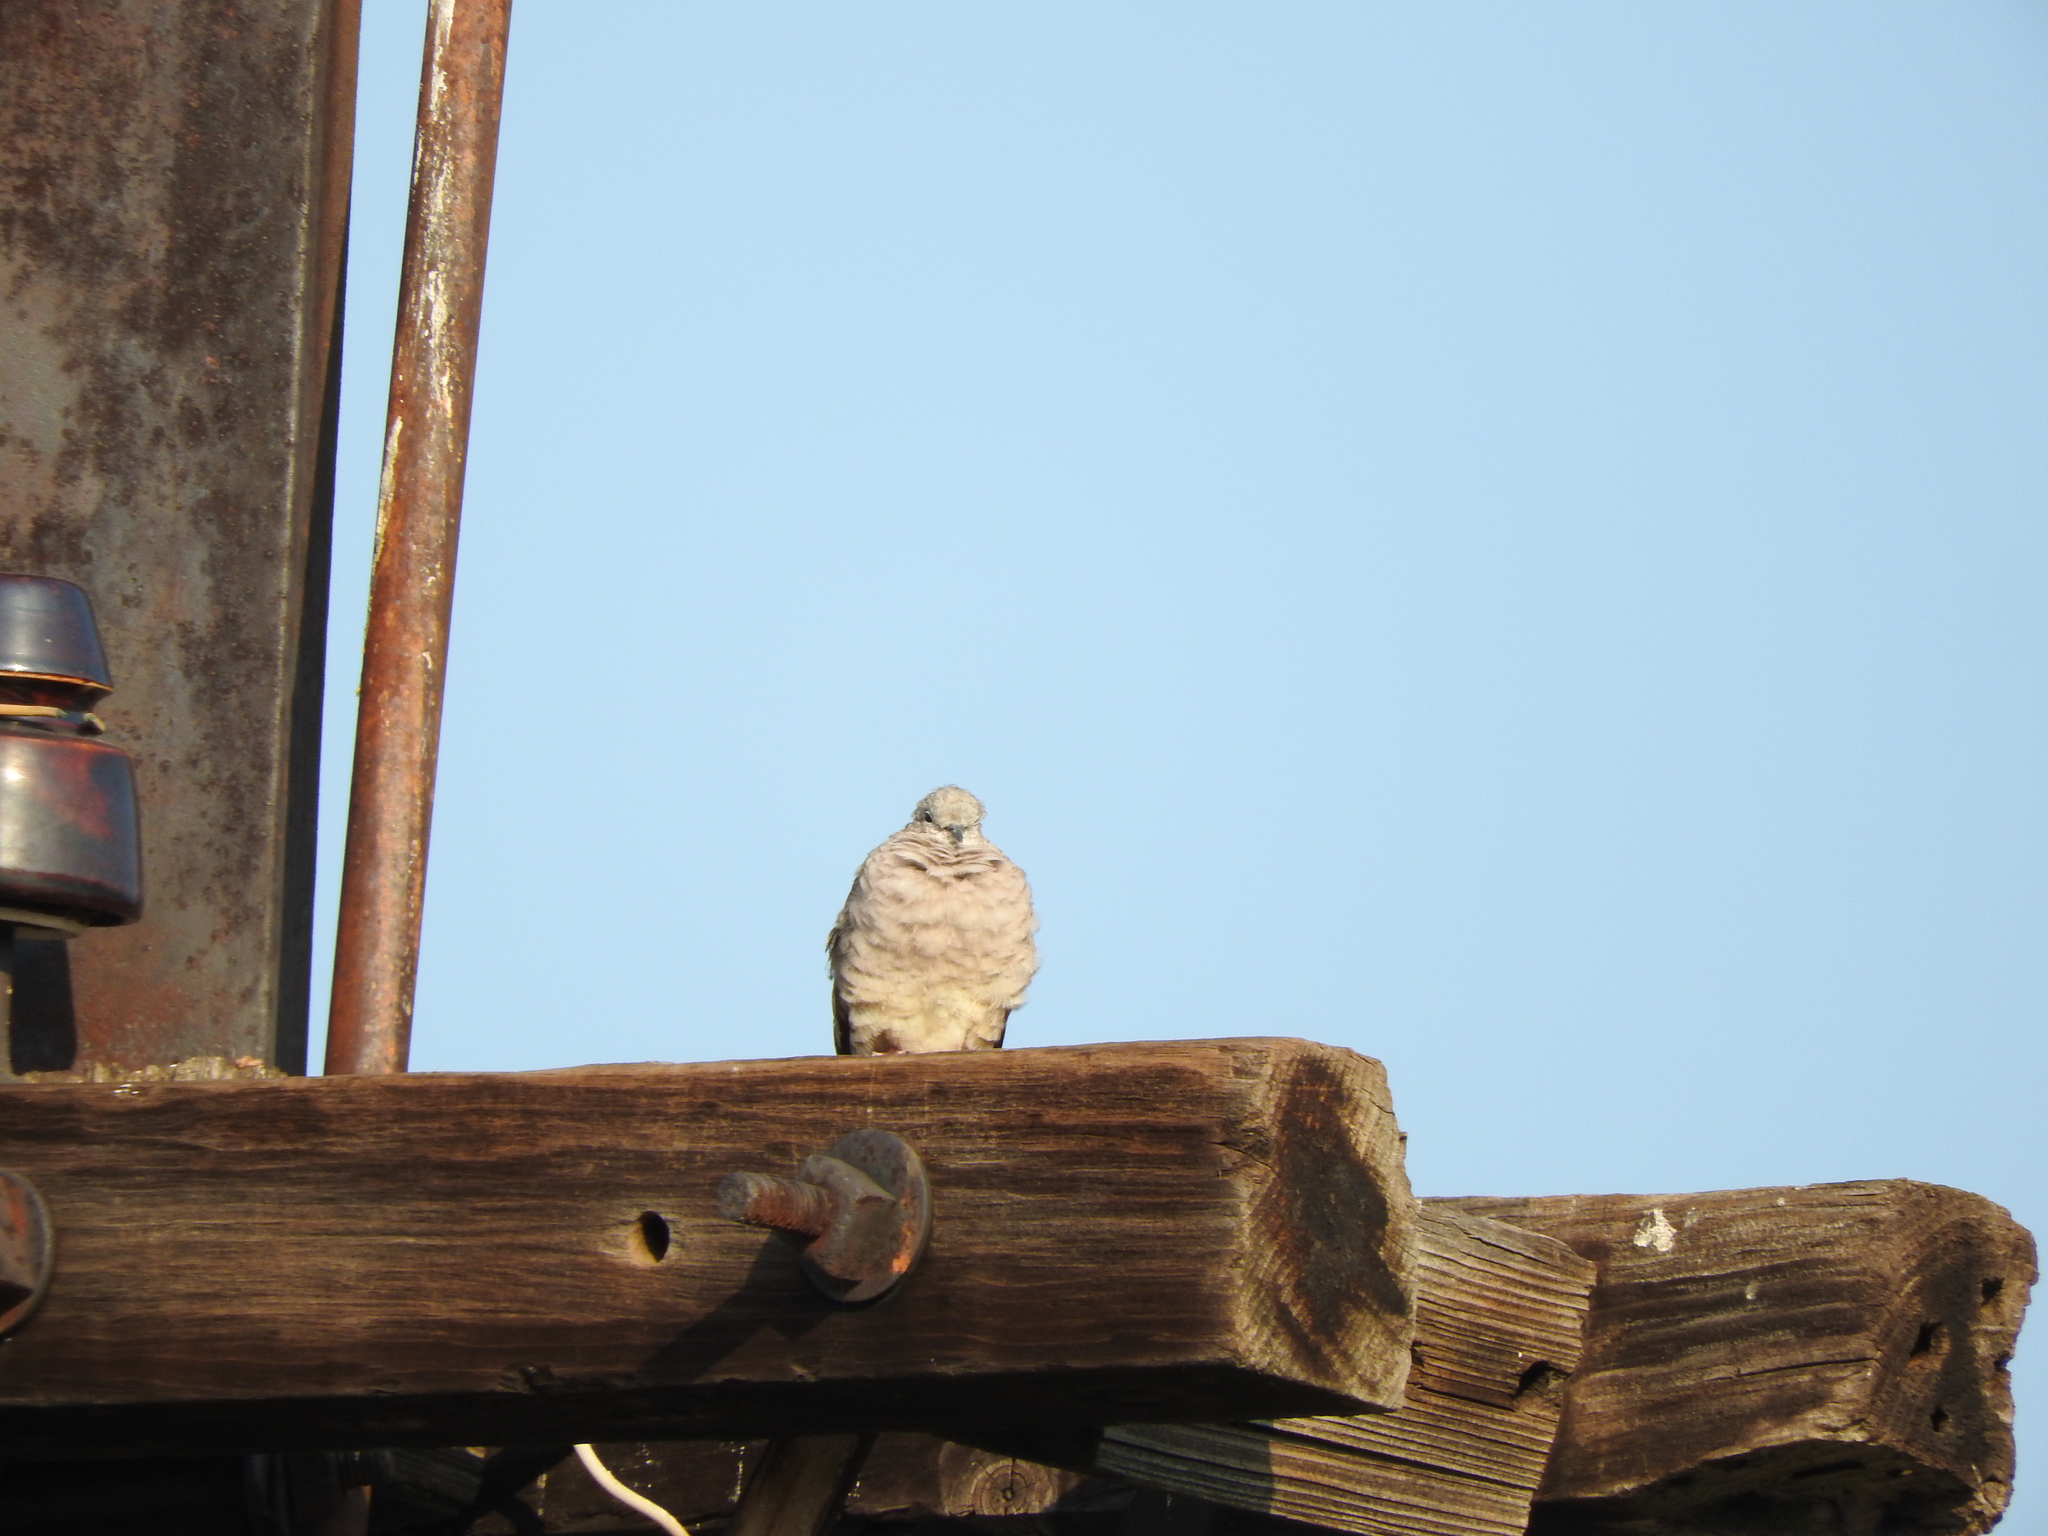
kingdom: Animalia
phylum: Chordata
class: Aves
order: Columbiformes
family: Columbidae
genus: Columbina
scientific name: Columbina inca
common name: Inca dove
